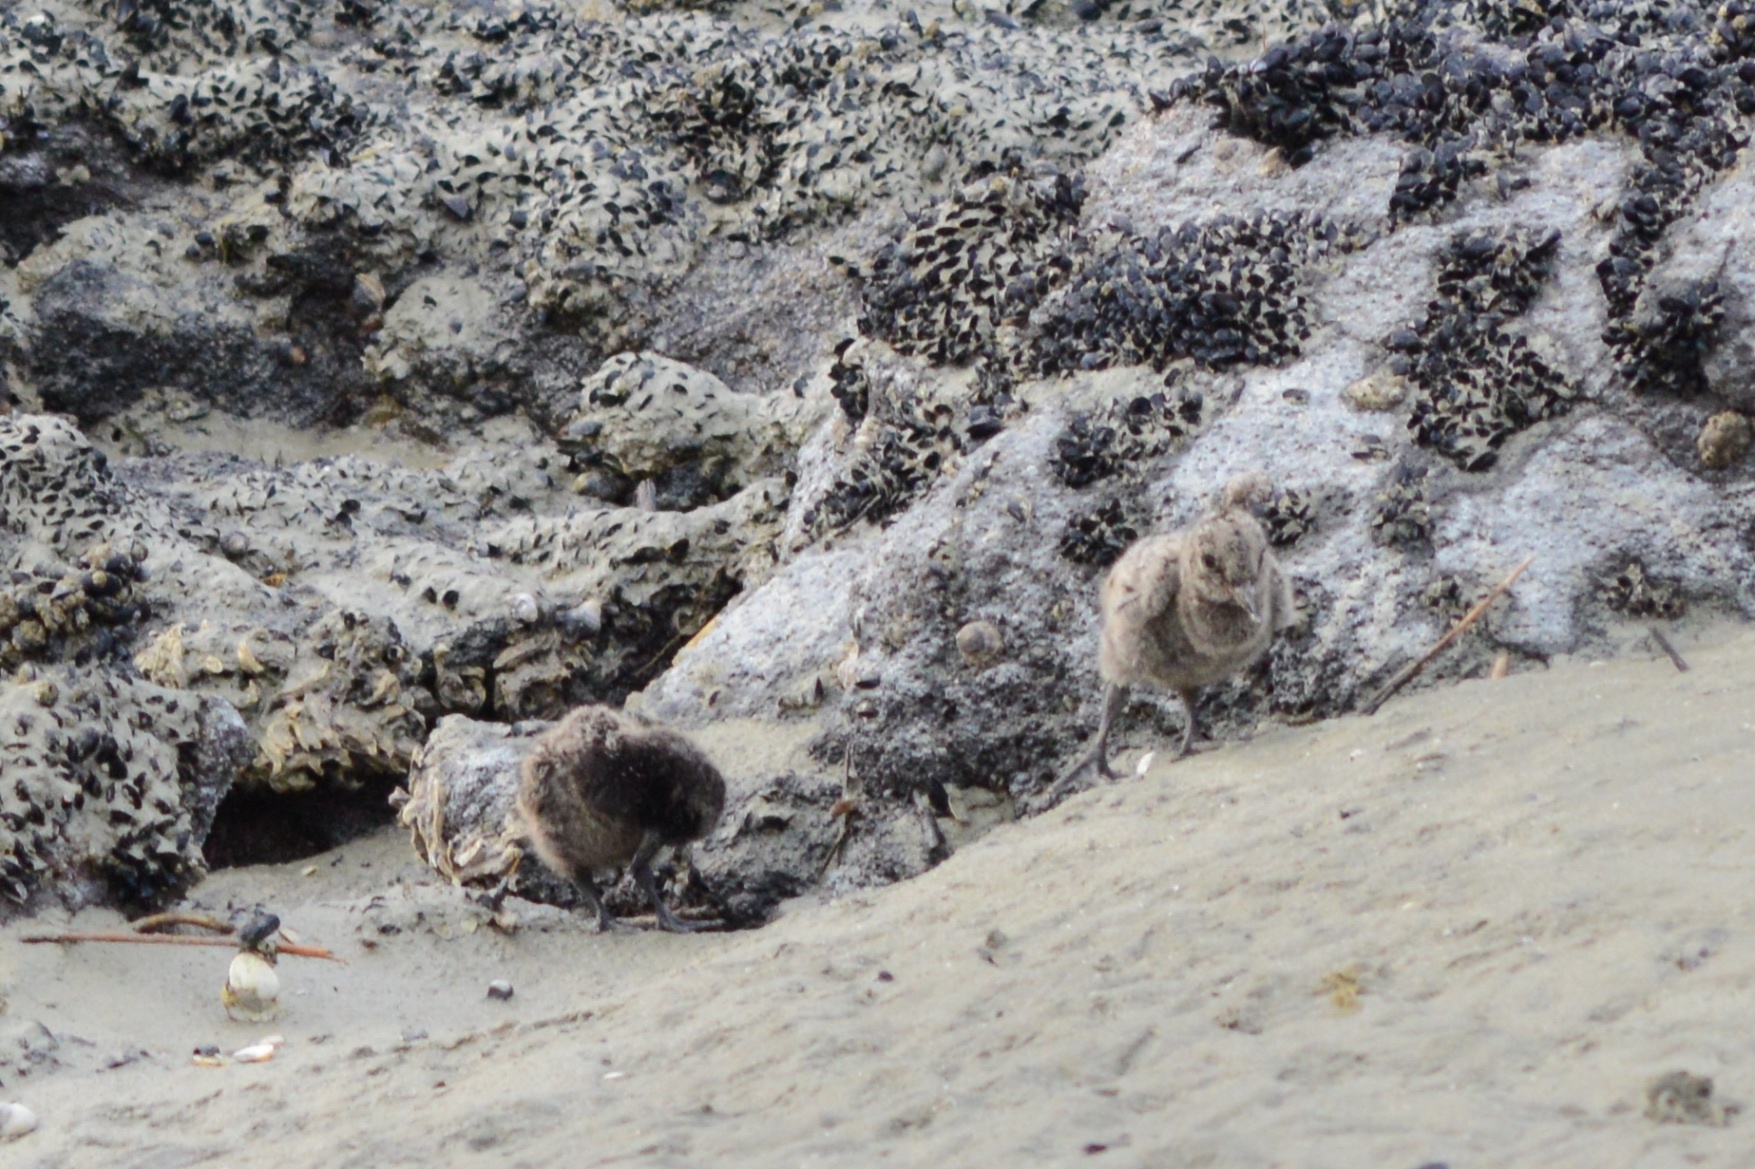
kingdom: Animalia
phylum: Chordata
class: Aves
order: Charadriiformes
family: Haematopodidae
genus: Haematopus
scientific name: Haematopus unicolor
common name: Variable oystercatcher
